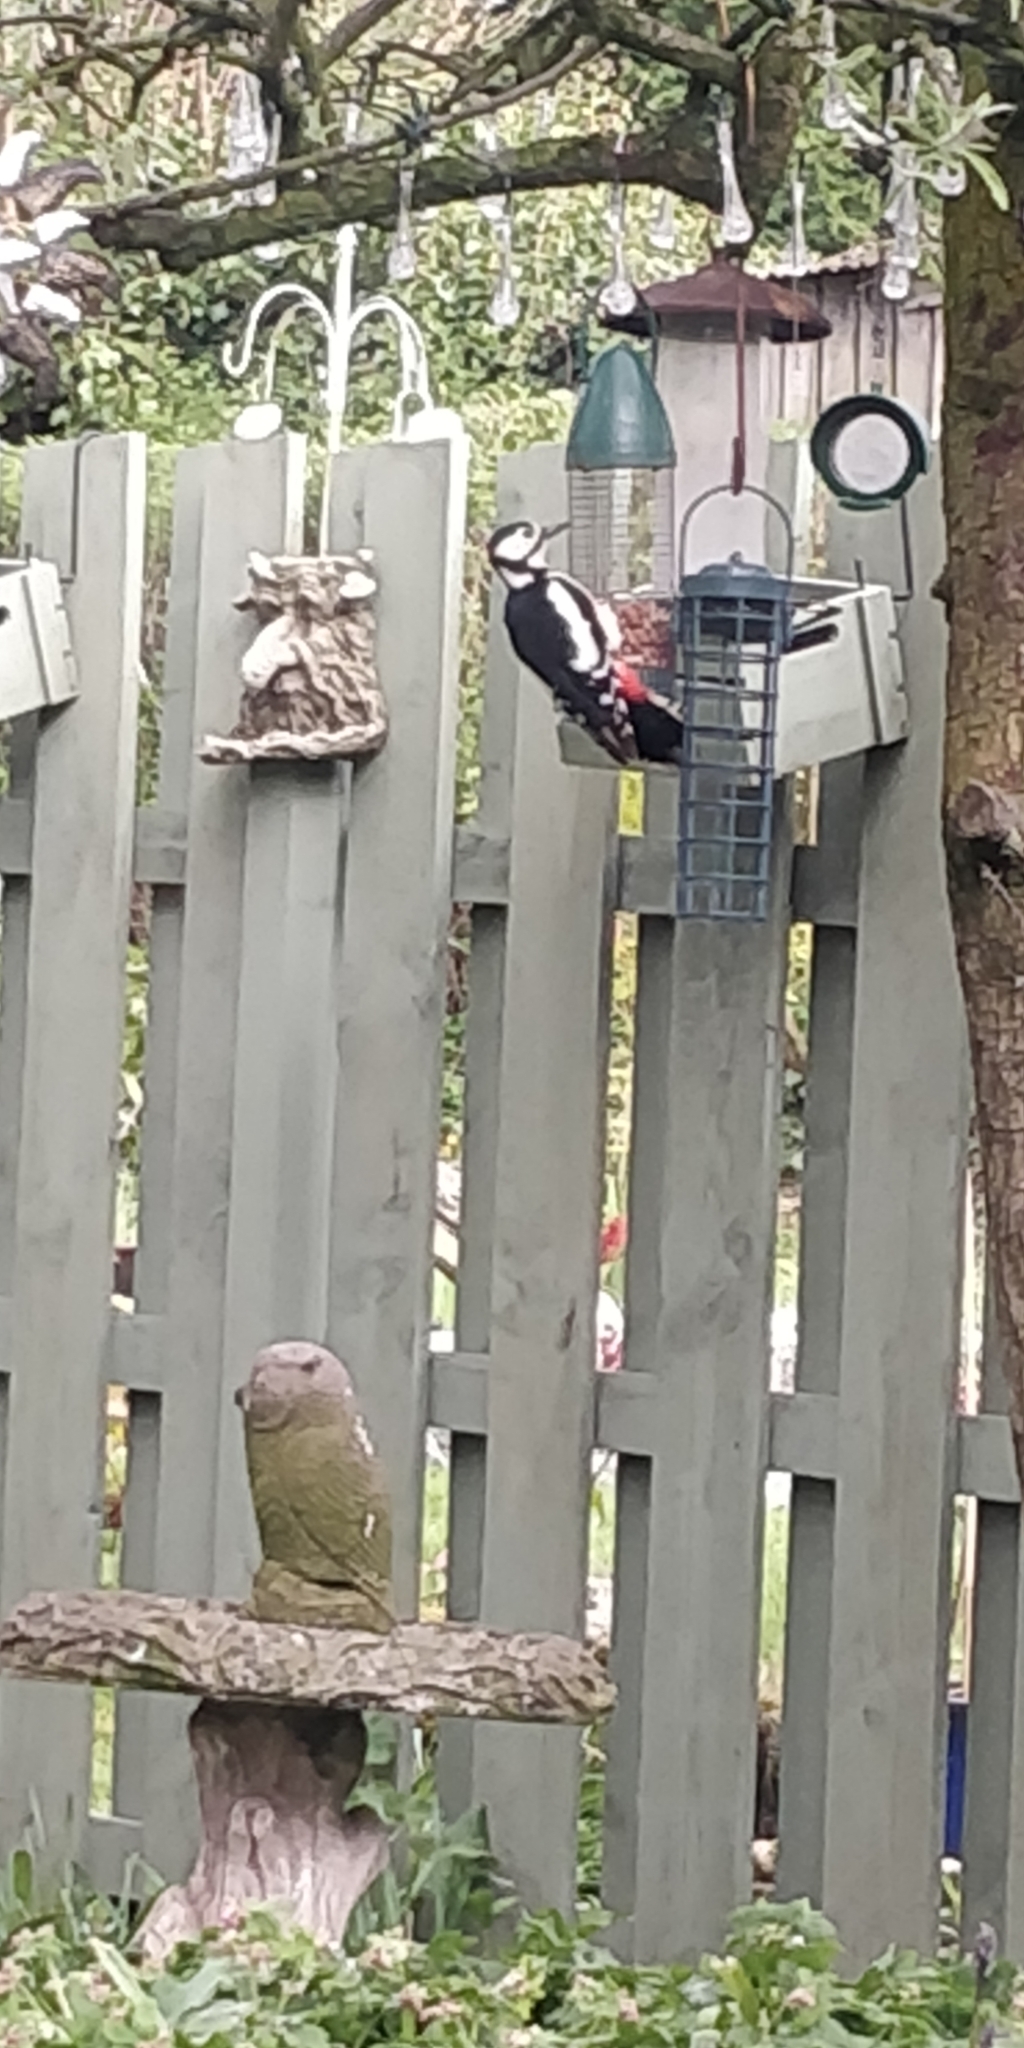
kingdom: Animalia
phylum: Chordata
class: Aves
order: Piciformes
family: Picidae
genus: Dendrocopos
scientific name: Dendrocopos major
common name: Great spotted woodpecker
